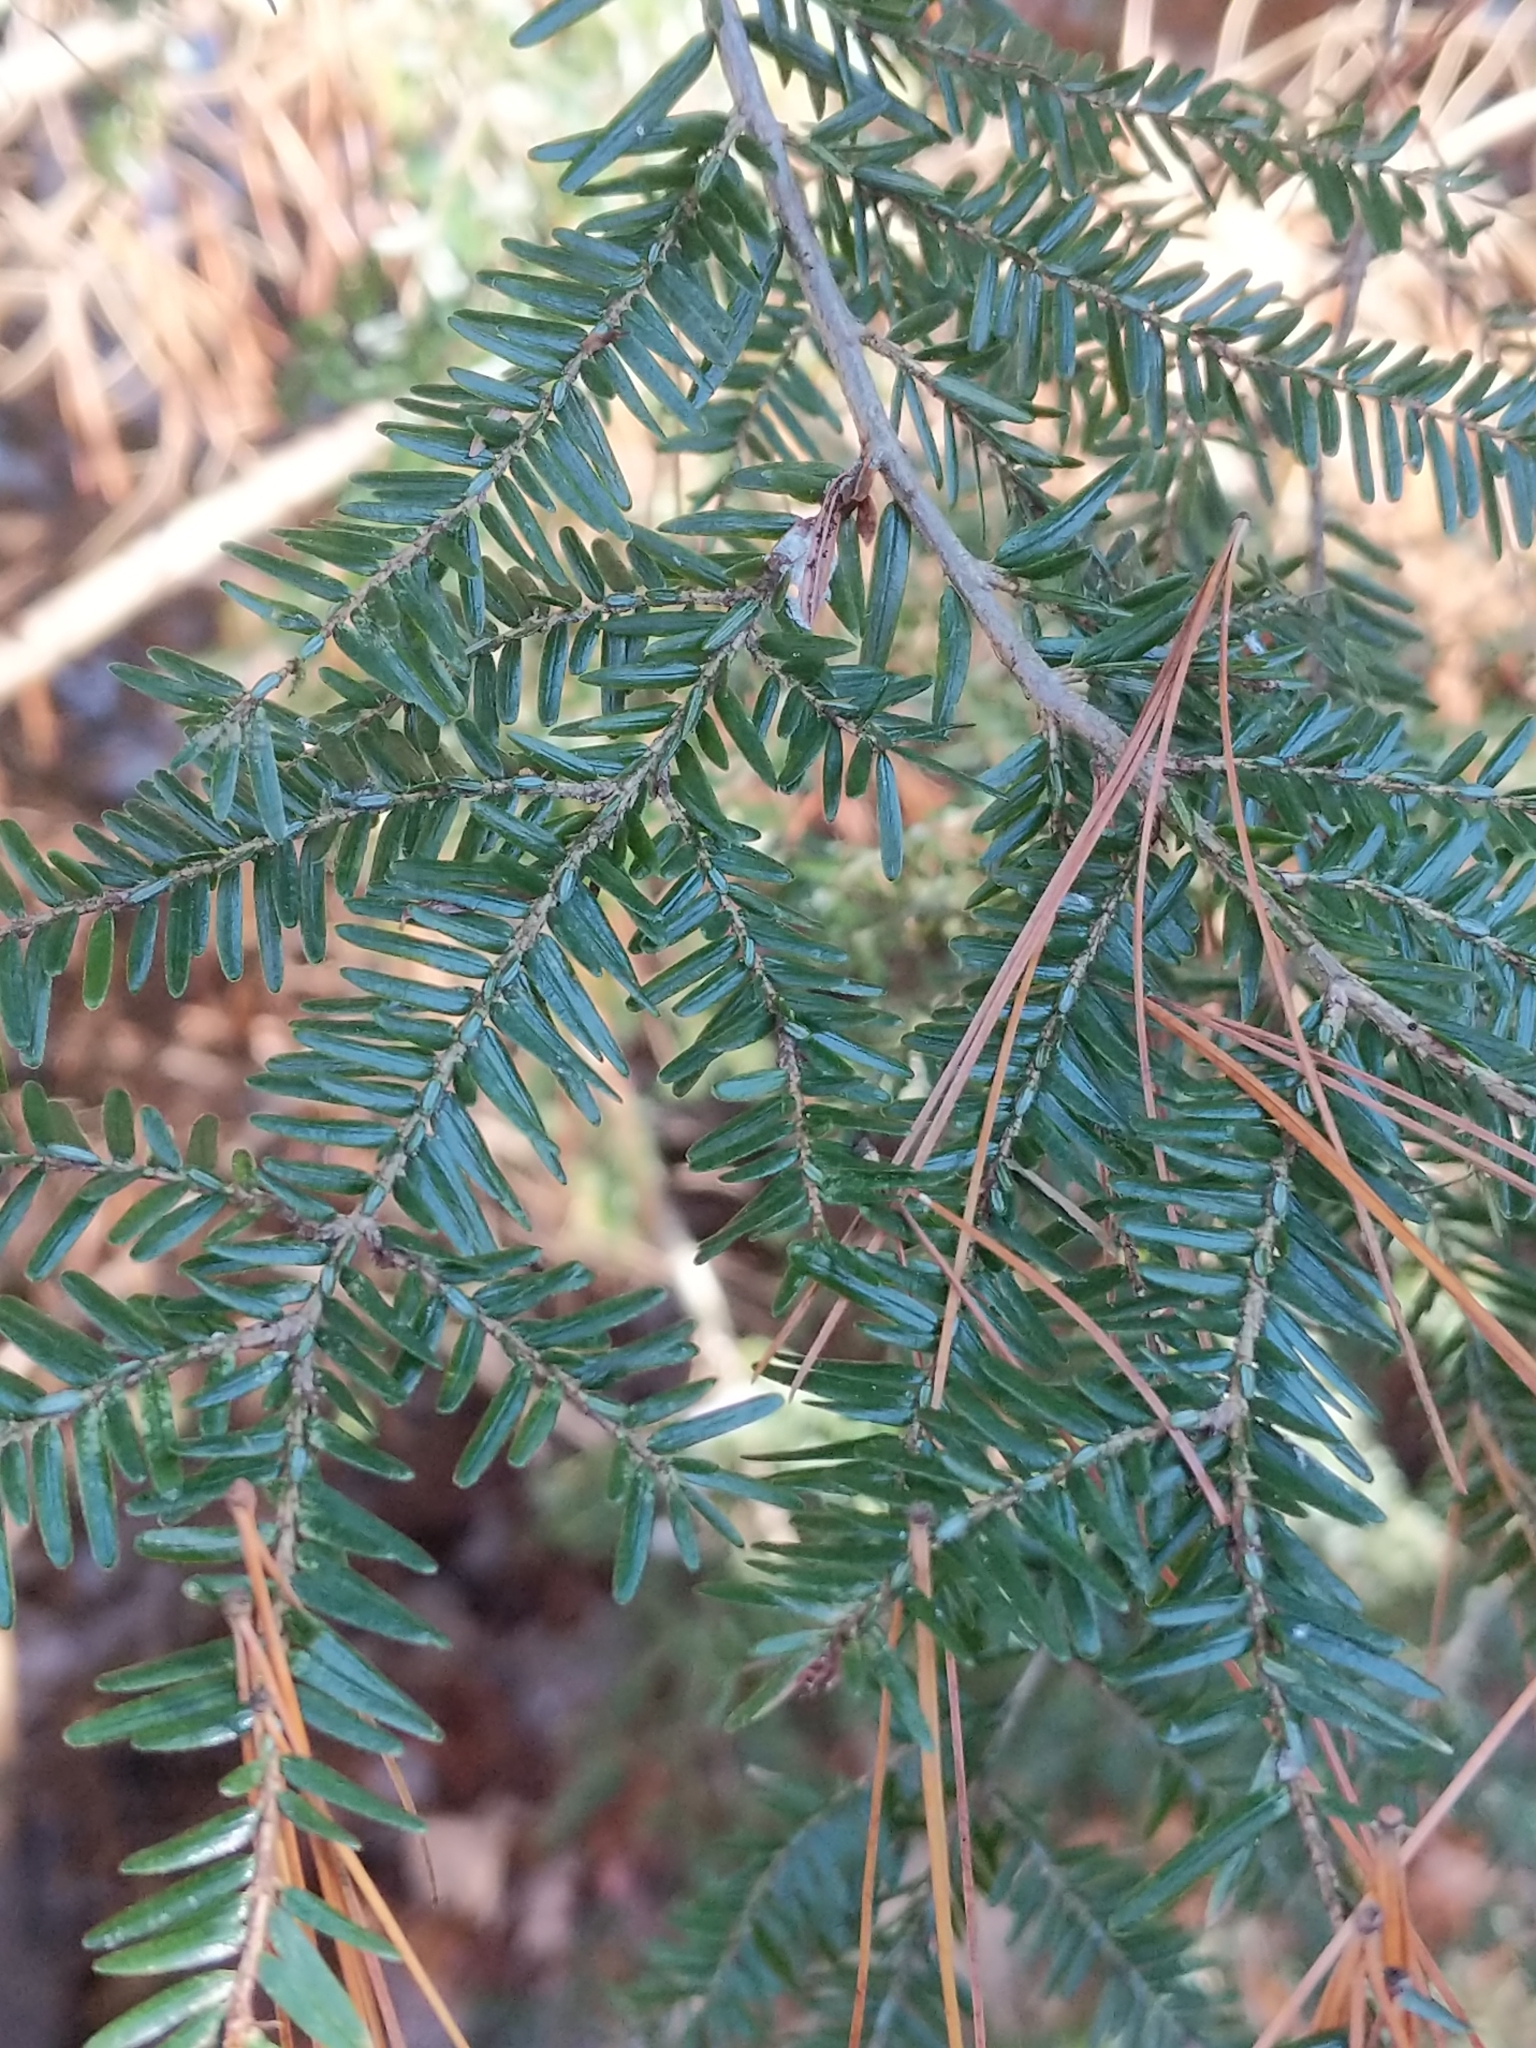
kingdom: Plantae
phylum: Tracheophyta
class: Pinopsida
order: Pinales
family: Pinaceae
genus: Tsuga
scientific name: Tsuga canadensis
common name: Eastern hemlock
